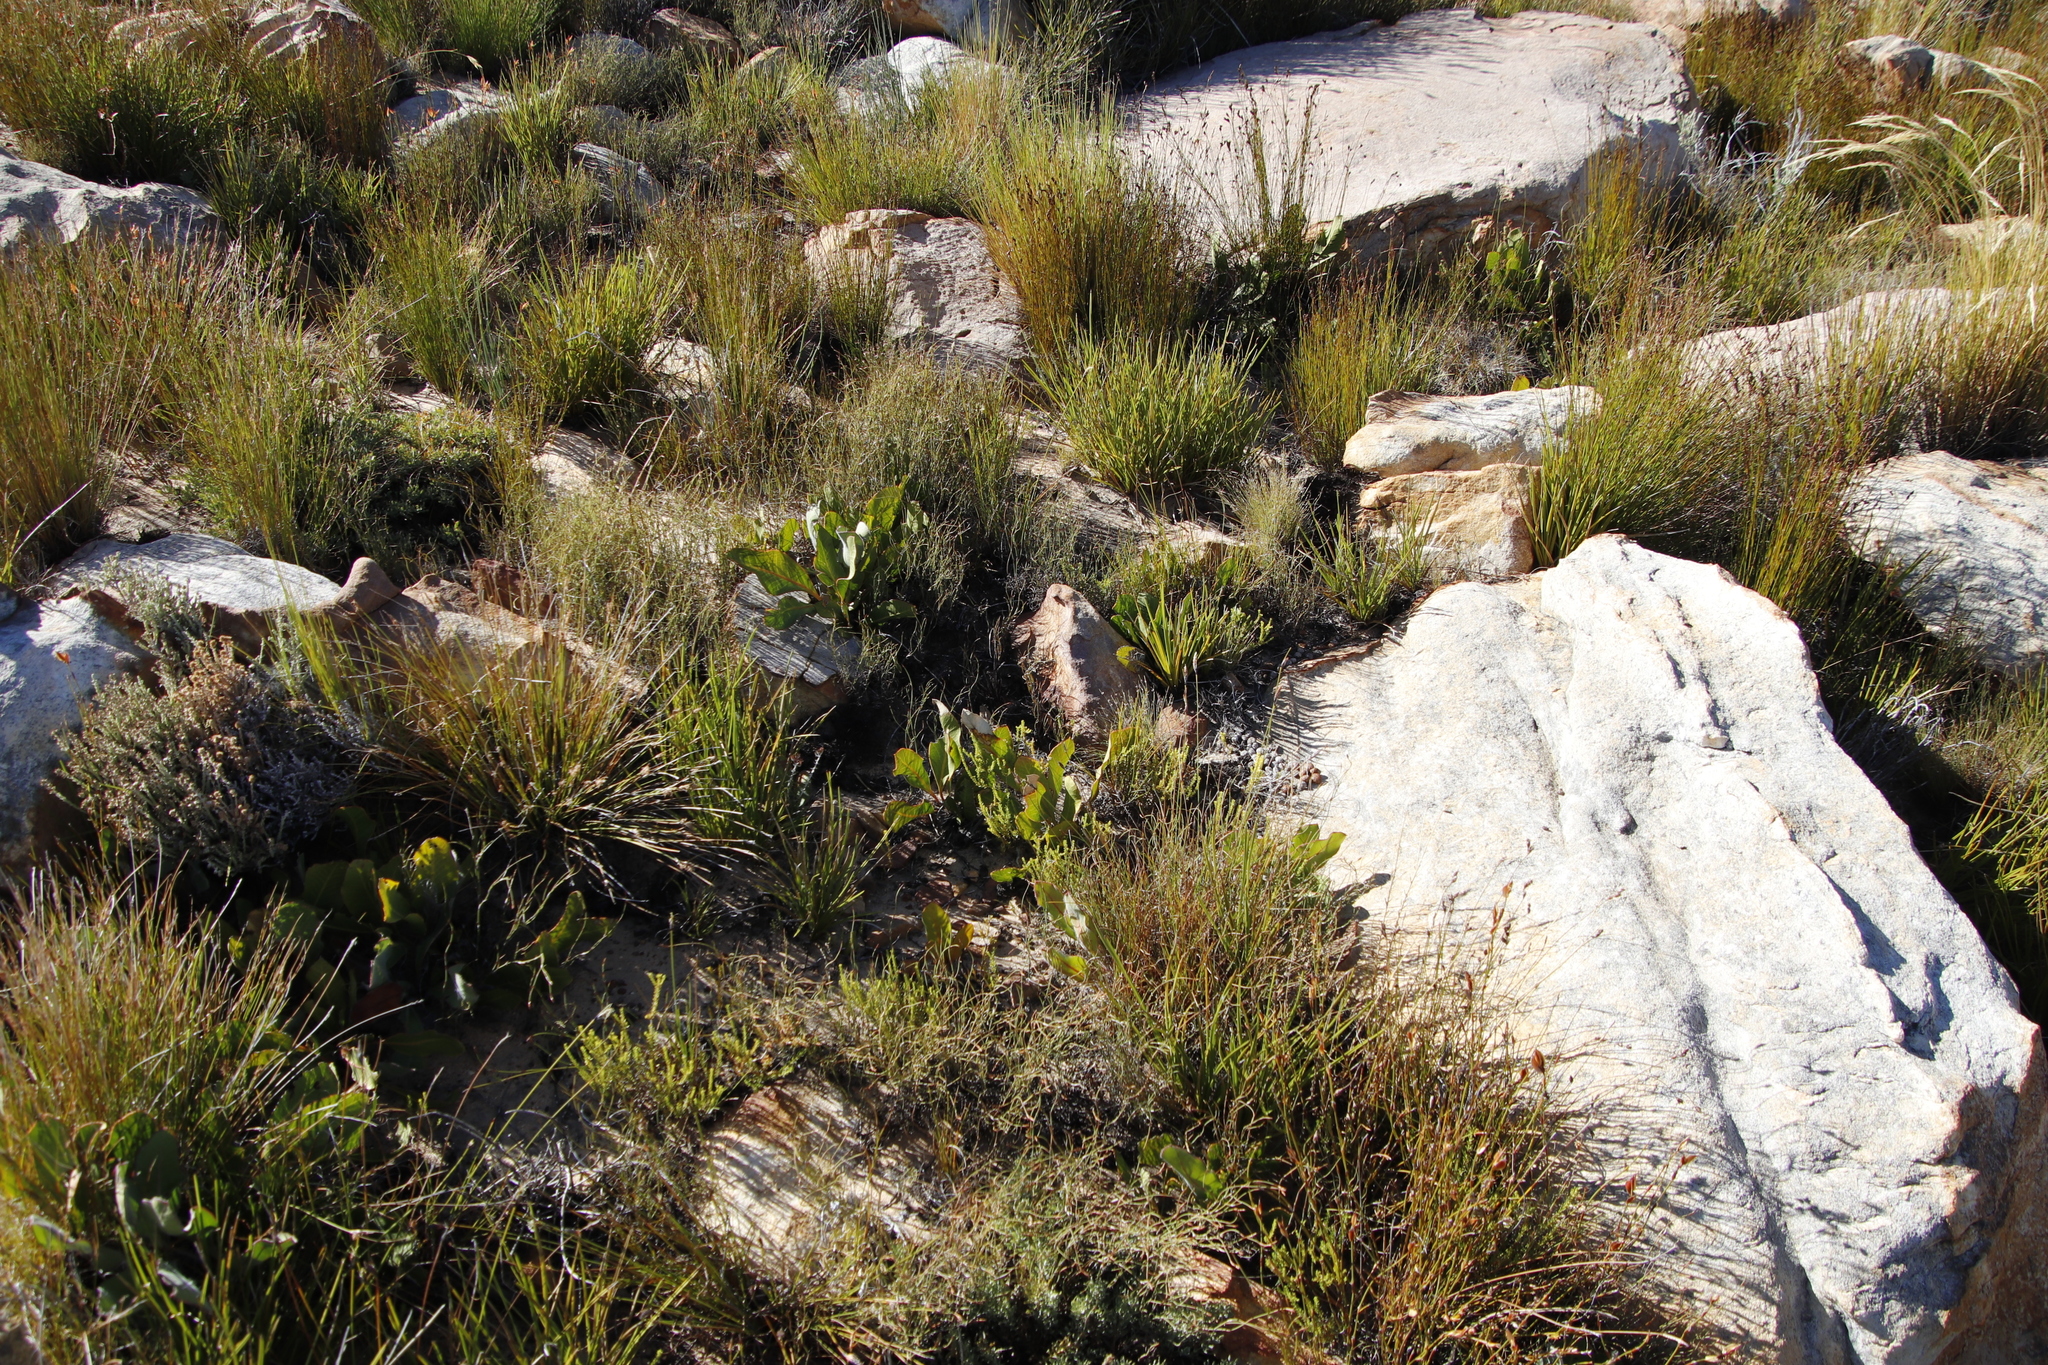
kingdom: Plantae
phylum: Tracheophyta
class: Magnoliopsida
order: Proteales
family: Proteaceae
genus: Protea
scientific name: Protea scolopendriifolia
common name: Harts-tongue-fern sugarbush
